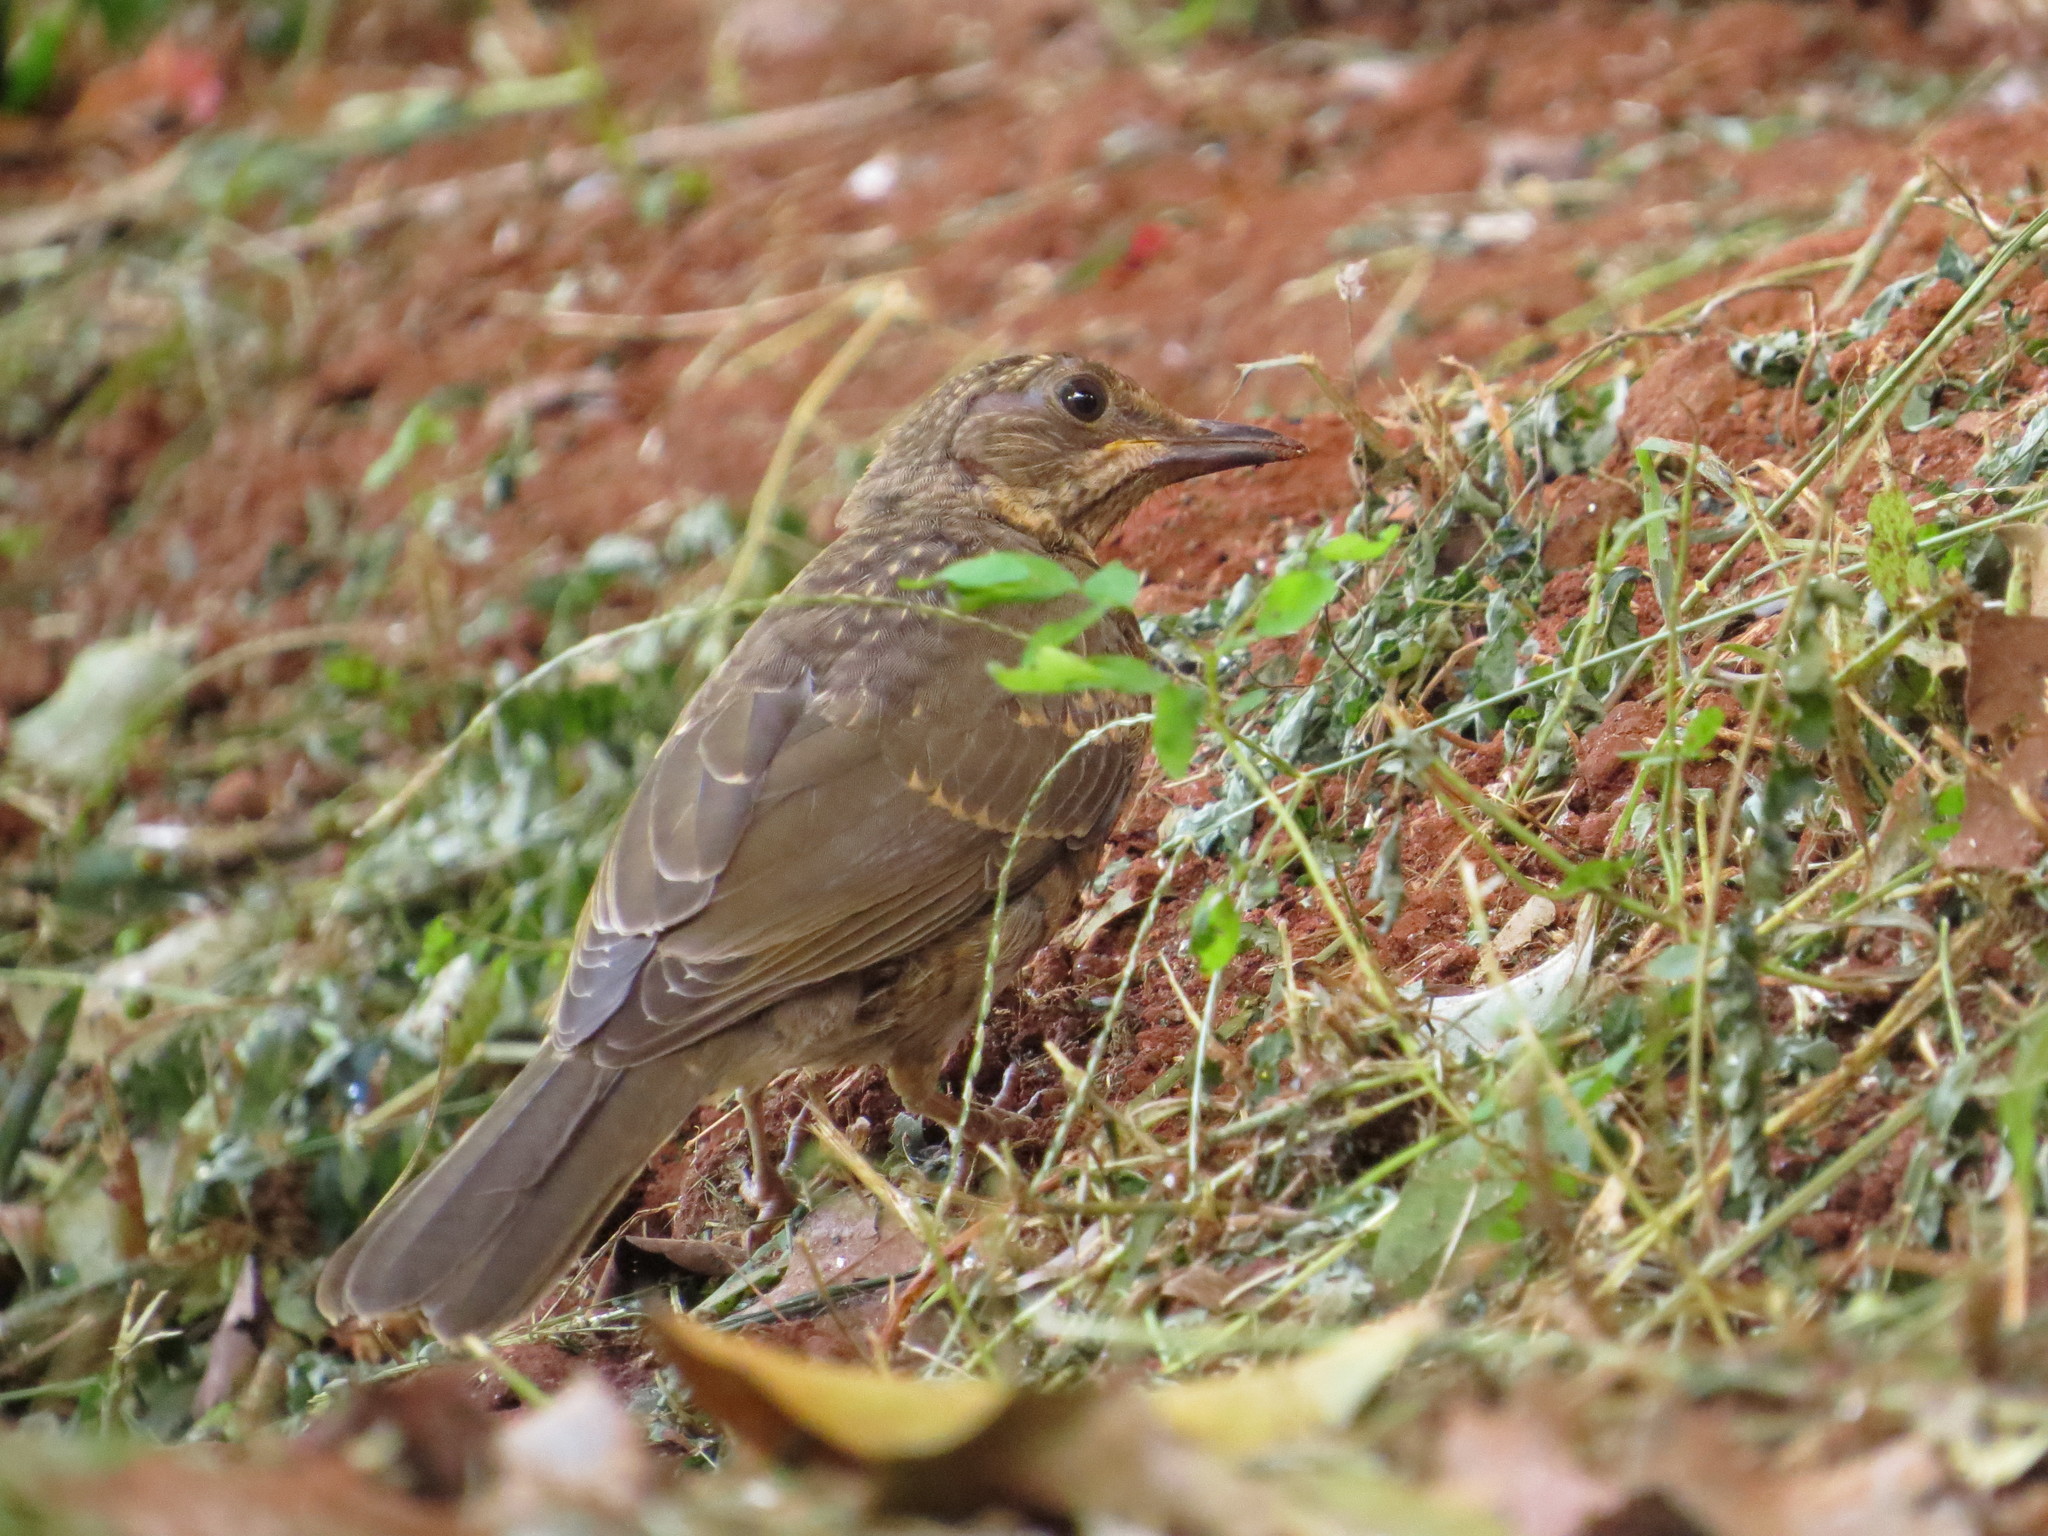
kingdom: Animalia
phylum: Chordata
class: Aves
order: Passeriformes
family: Turdidae
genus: Turdus
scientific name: Turdus leucomelas
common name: Pale-breasted thrush
